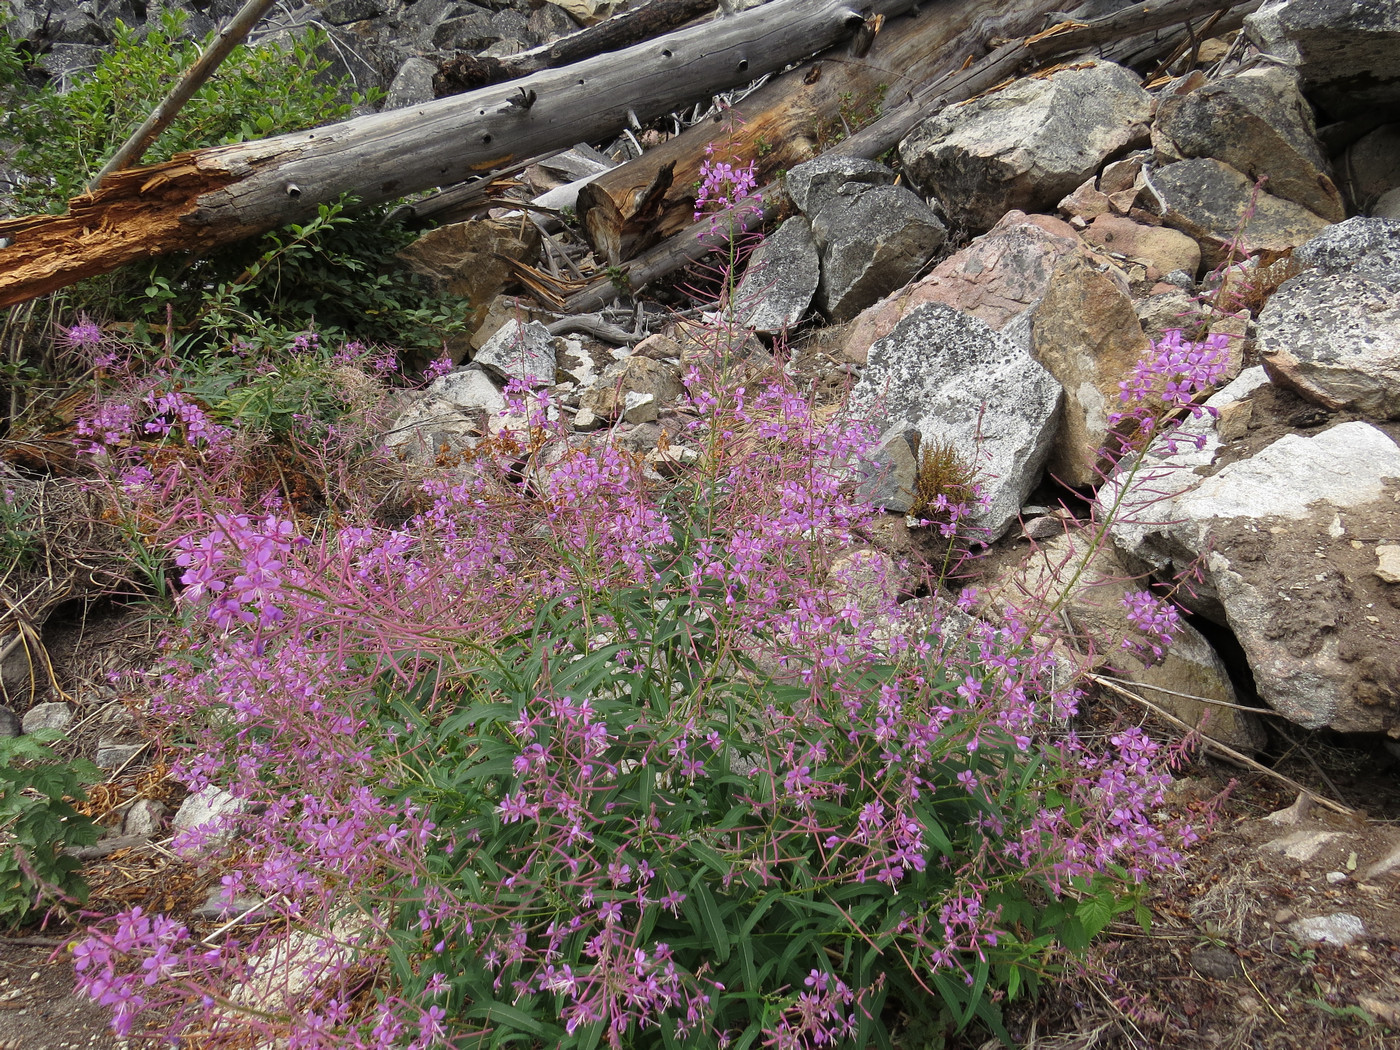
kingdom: Plantae
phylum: Tracheophyta
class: Magnoliopsida
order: Myrtales
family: Onagraceae
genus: Chamaenerion
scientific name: Chamaenerion angustifolium
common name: Fireweed
